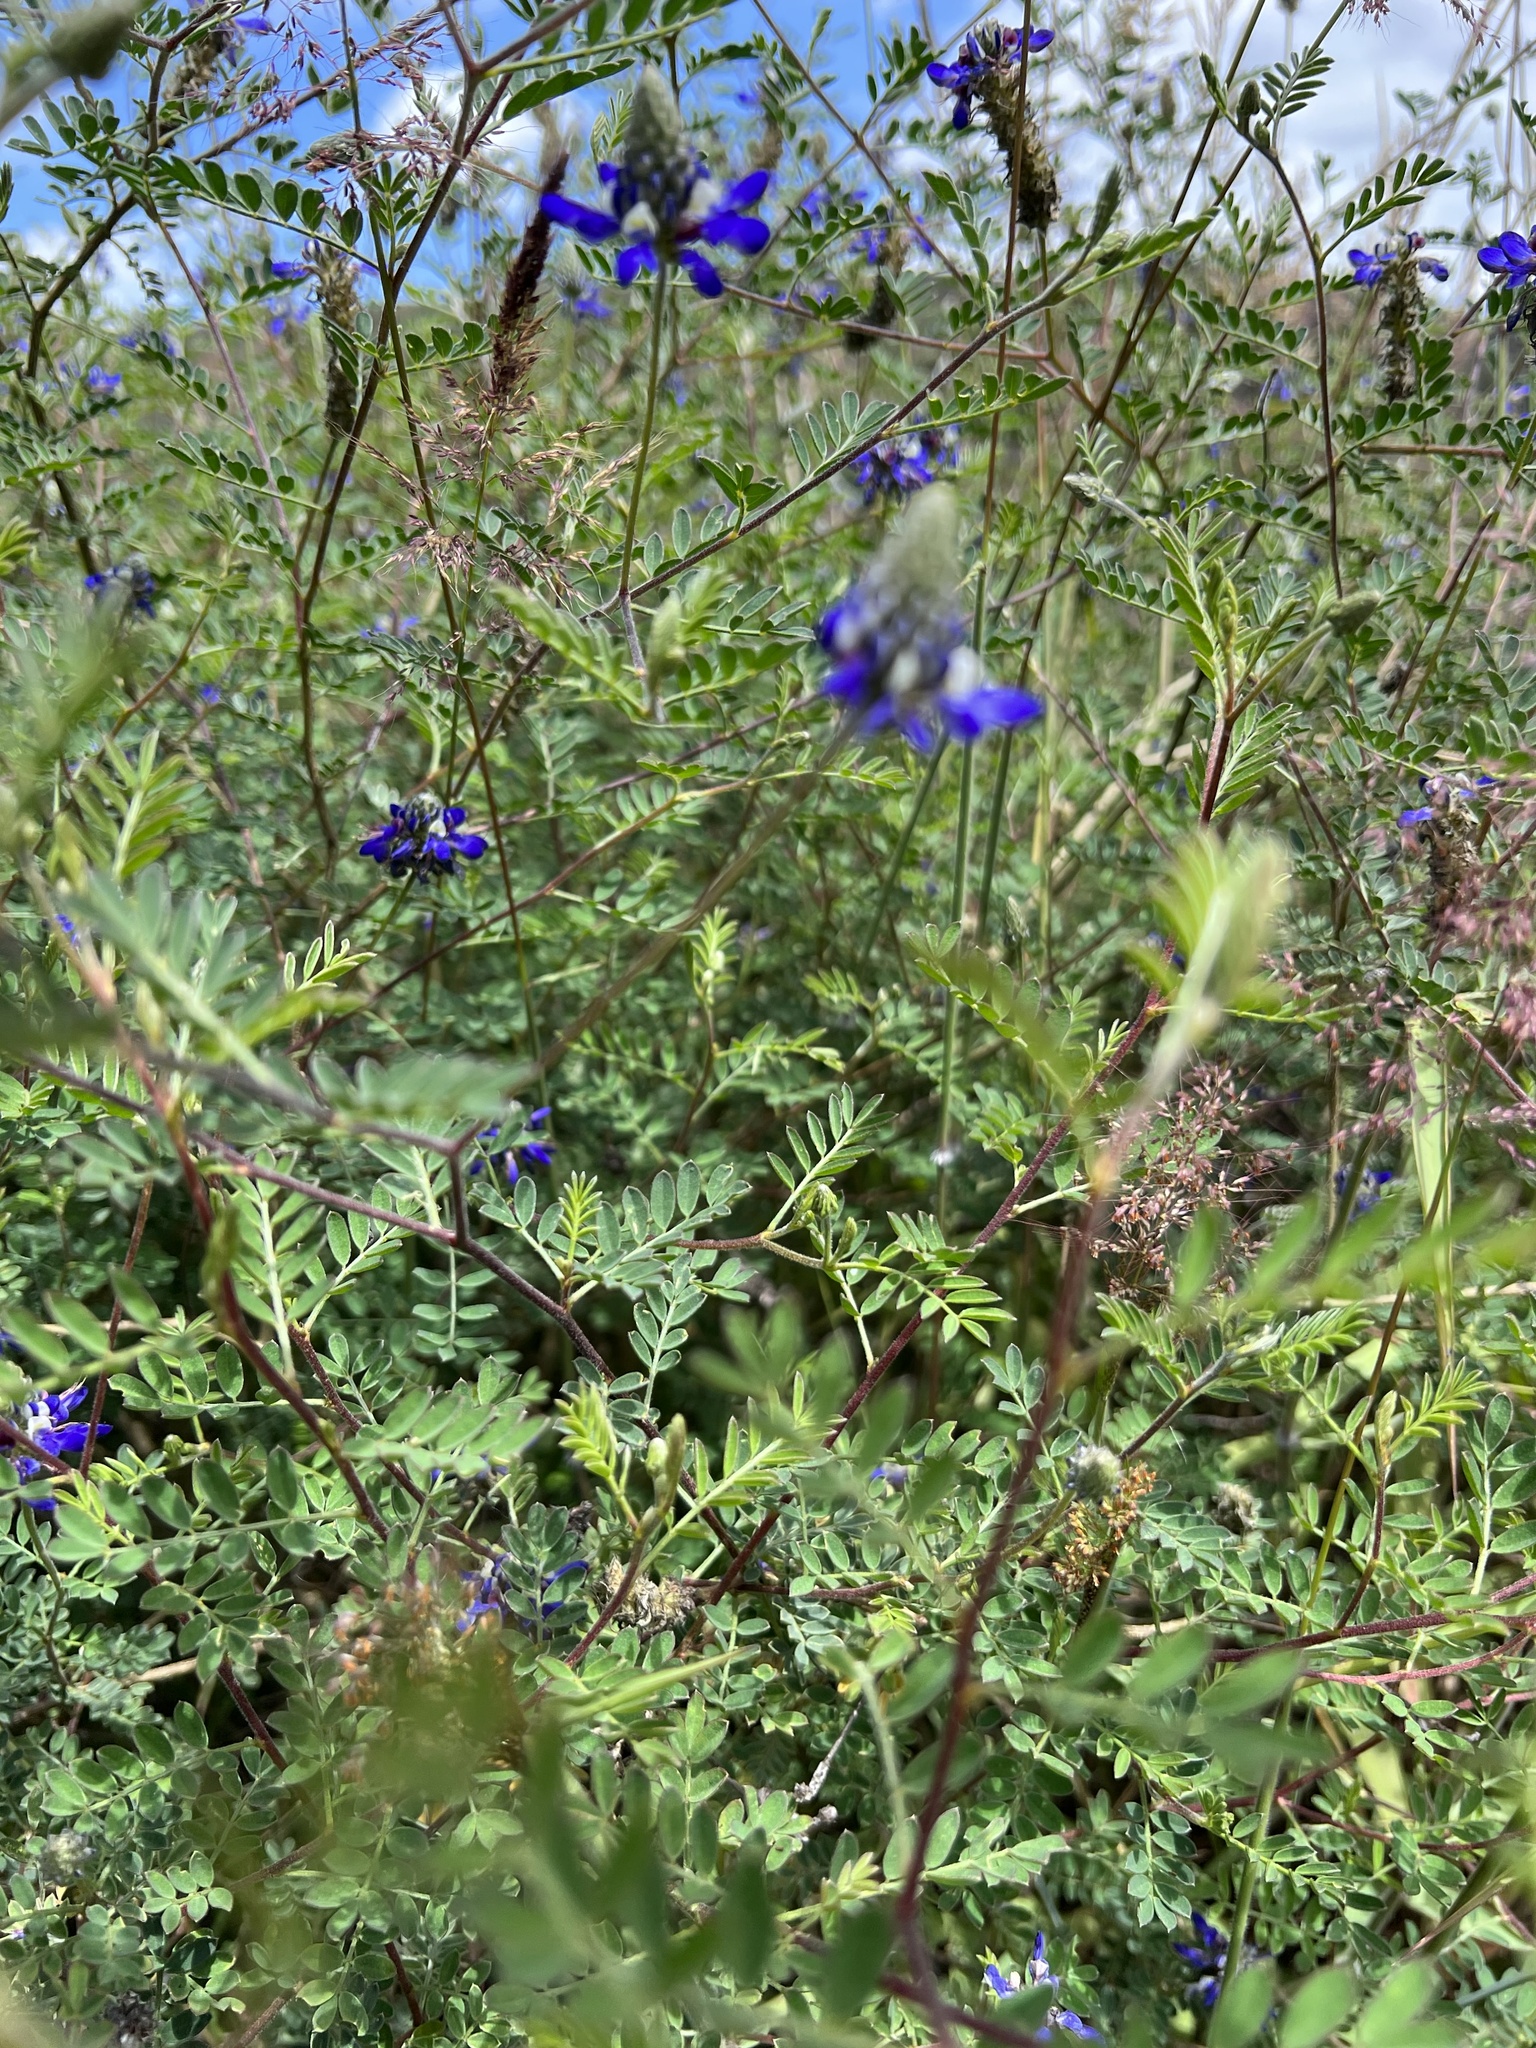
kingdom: Plantae
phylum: Tracheophyta
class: Magnoliopsida
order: Fabales
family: Fabaceae
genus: Dalea
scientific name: Dalea coerulea
